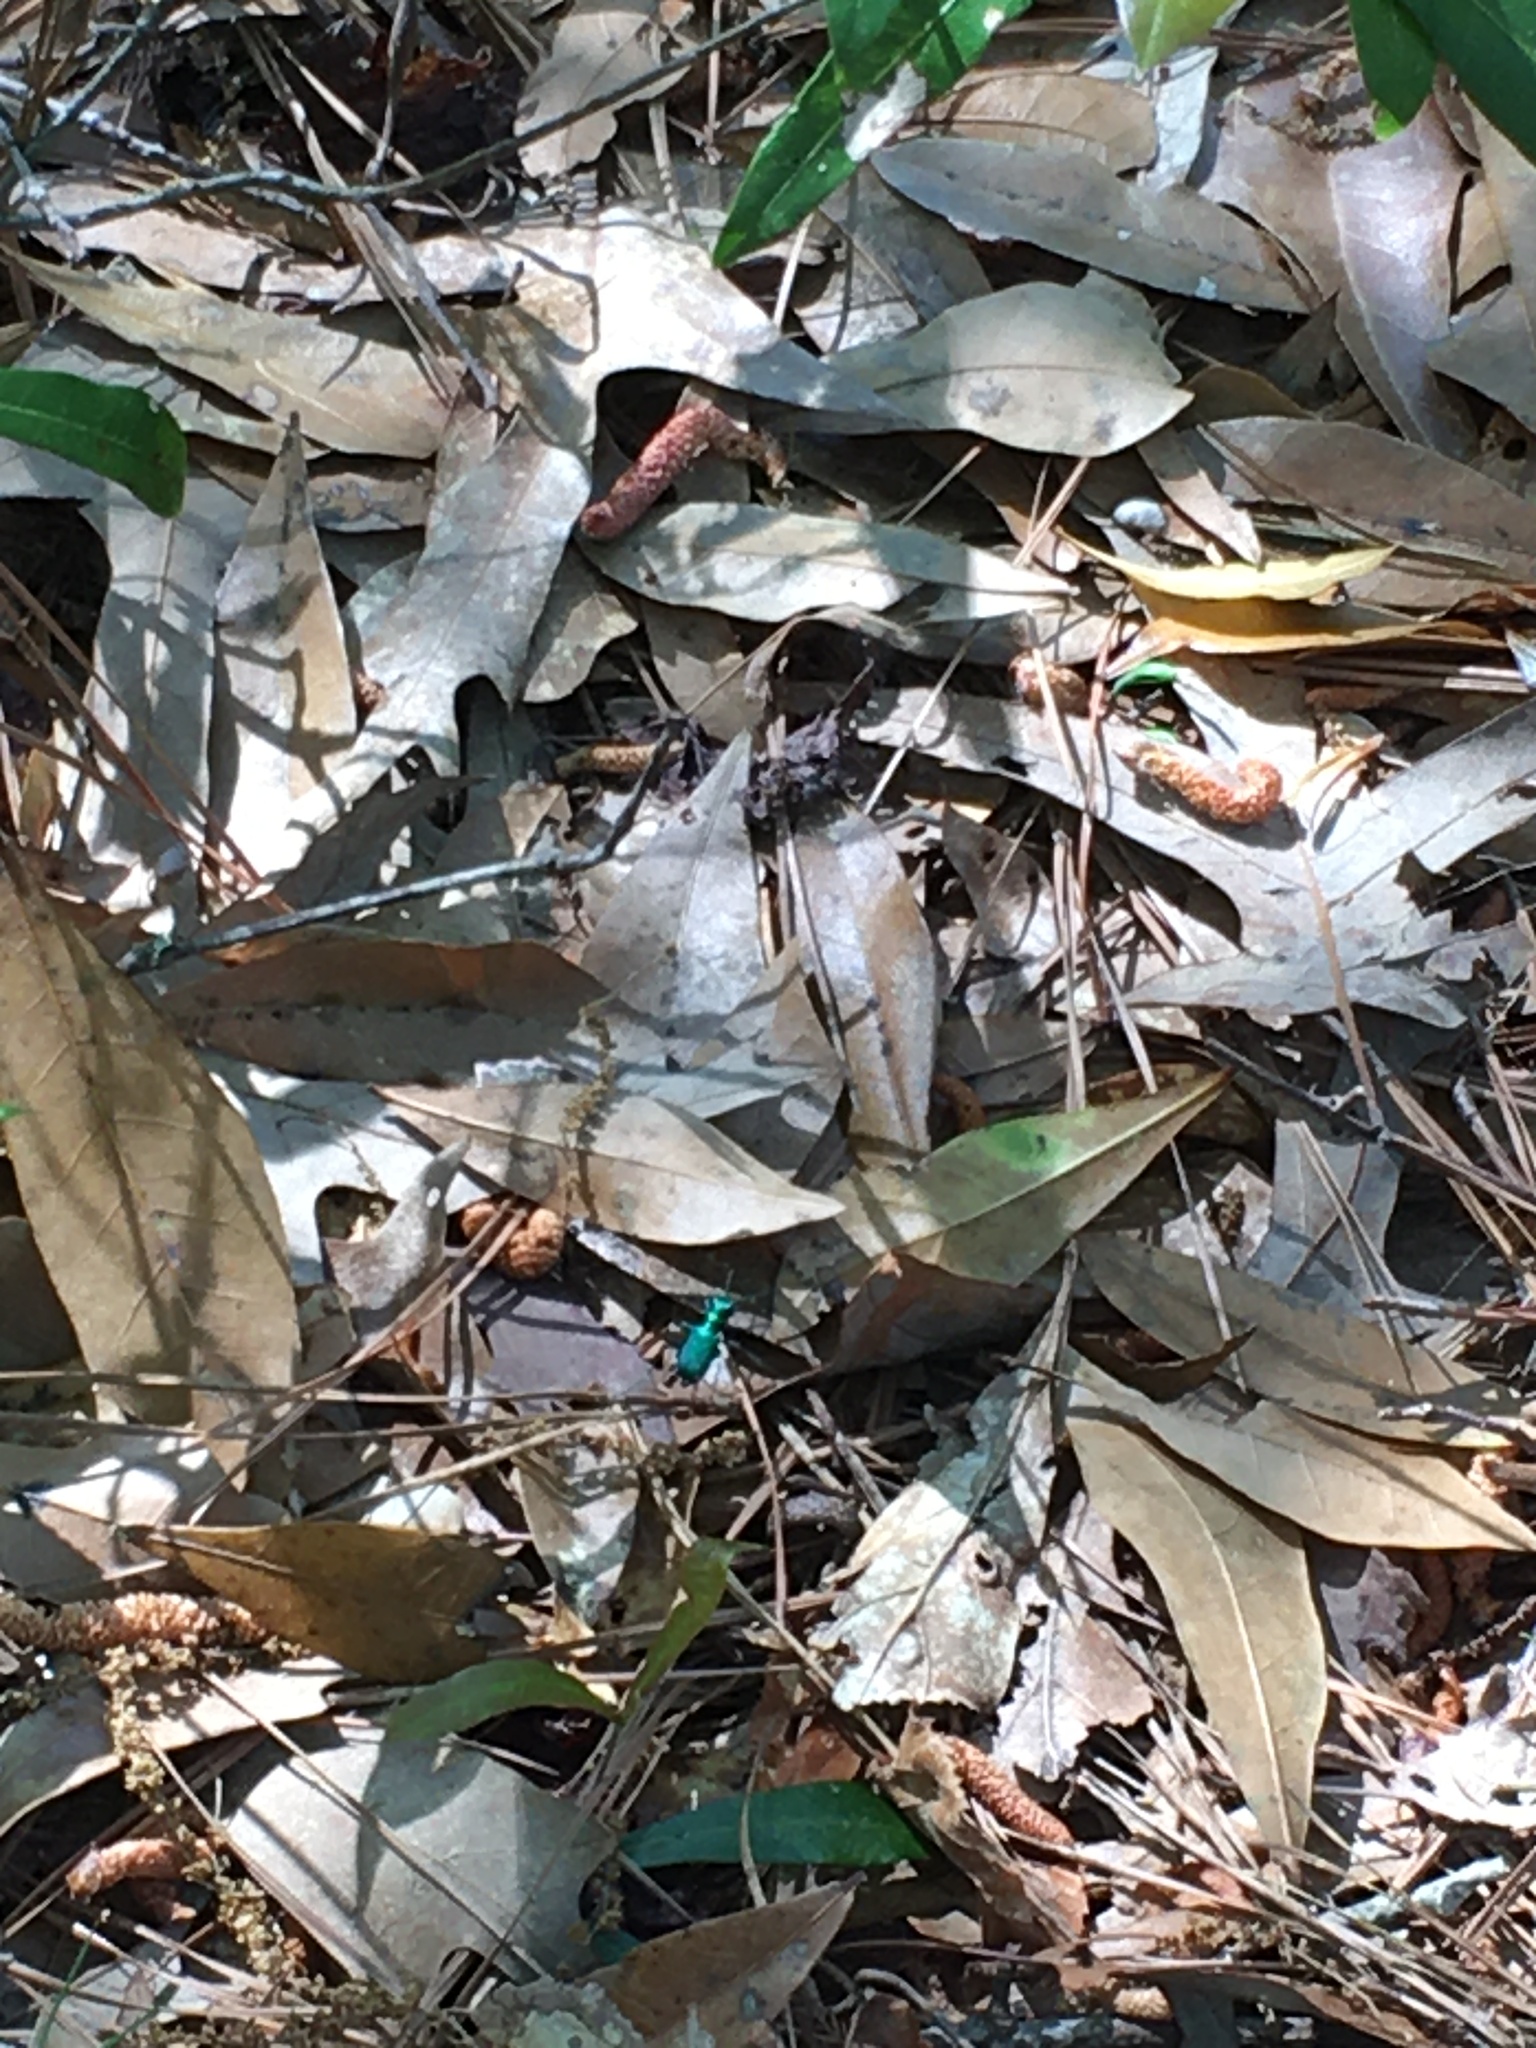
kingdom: Animalia
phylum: Arthropoda
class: Insecta
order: Coleoptera
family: Carabidae
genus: Cicindela
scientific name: Cicindela sexguttata
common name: Six-spotted tiger beetle
